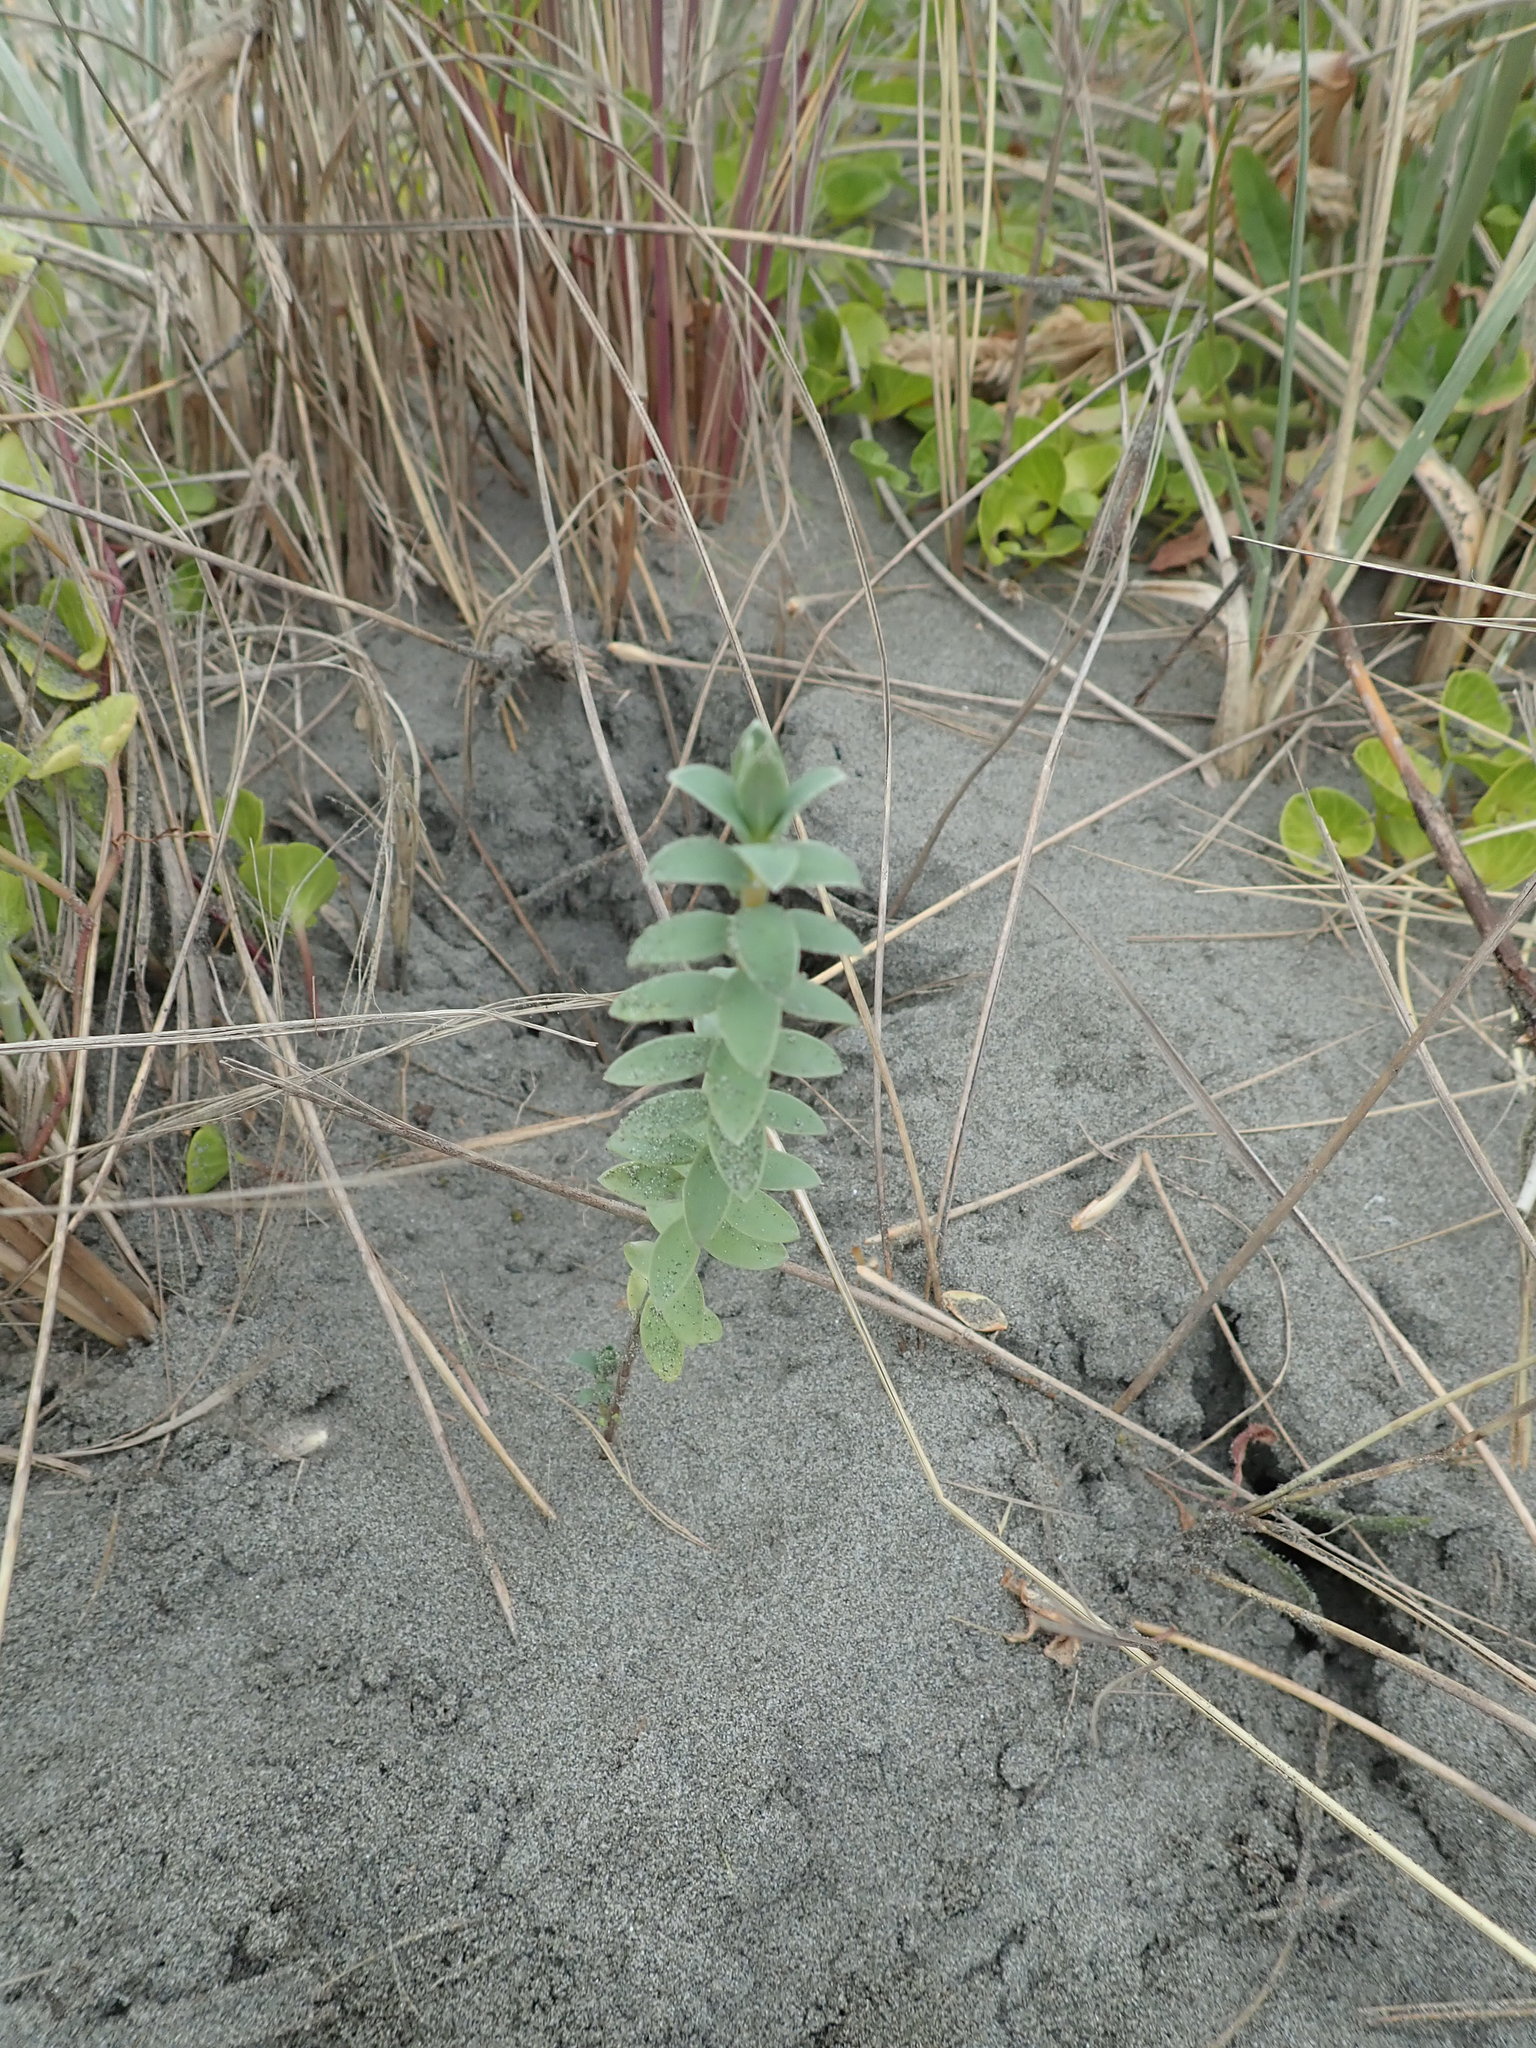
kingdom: Plantae
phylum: Tracheophyta
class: Magnoliopsida
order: Malvales
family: Thymelaeaceae
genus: Pimelea
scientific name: Pimelea villosa
